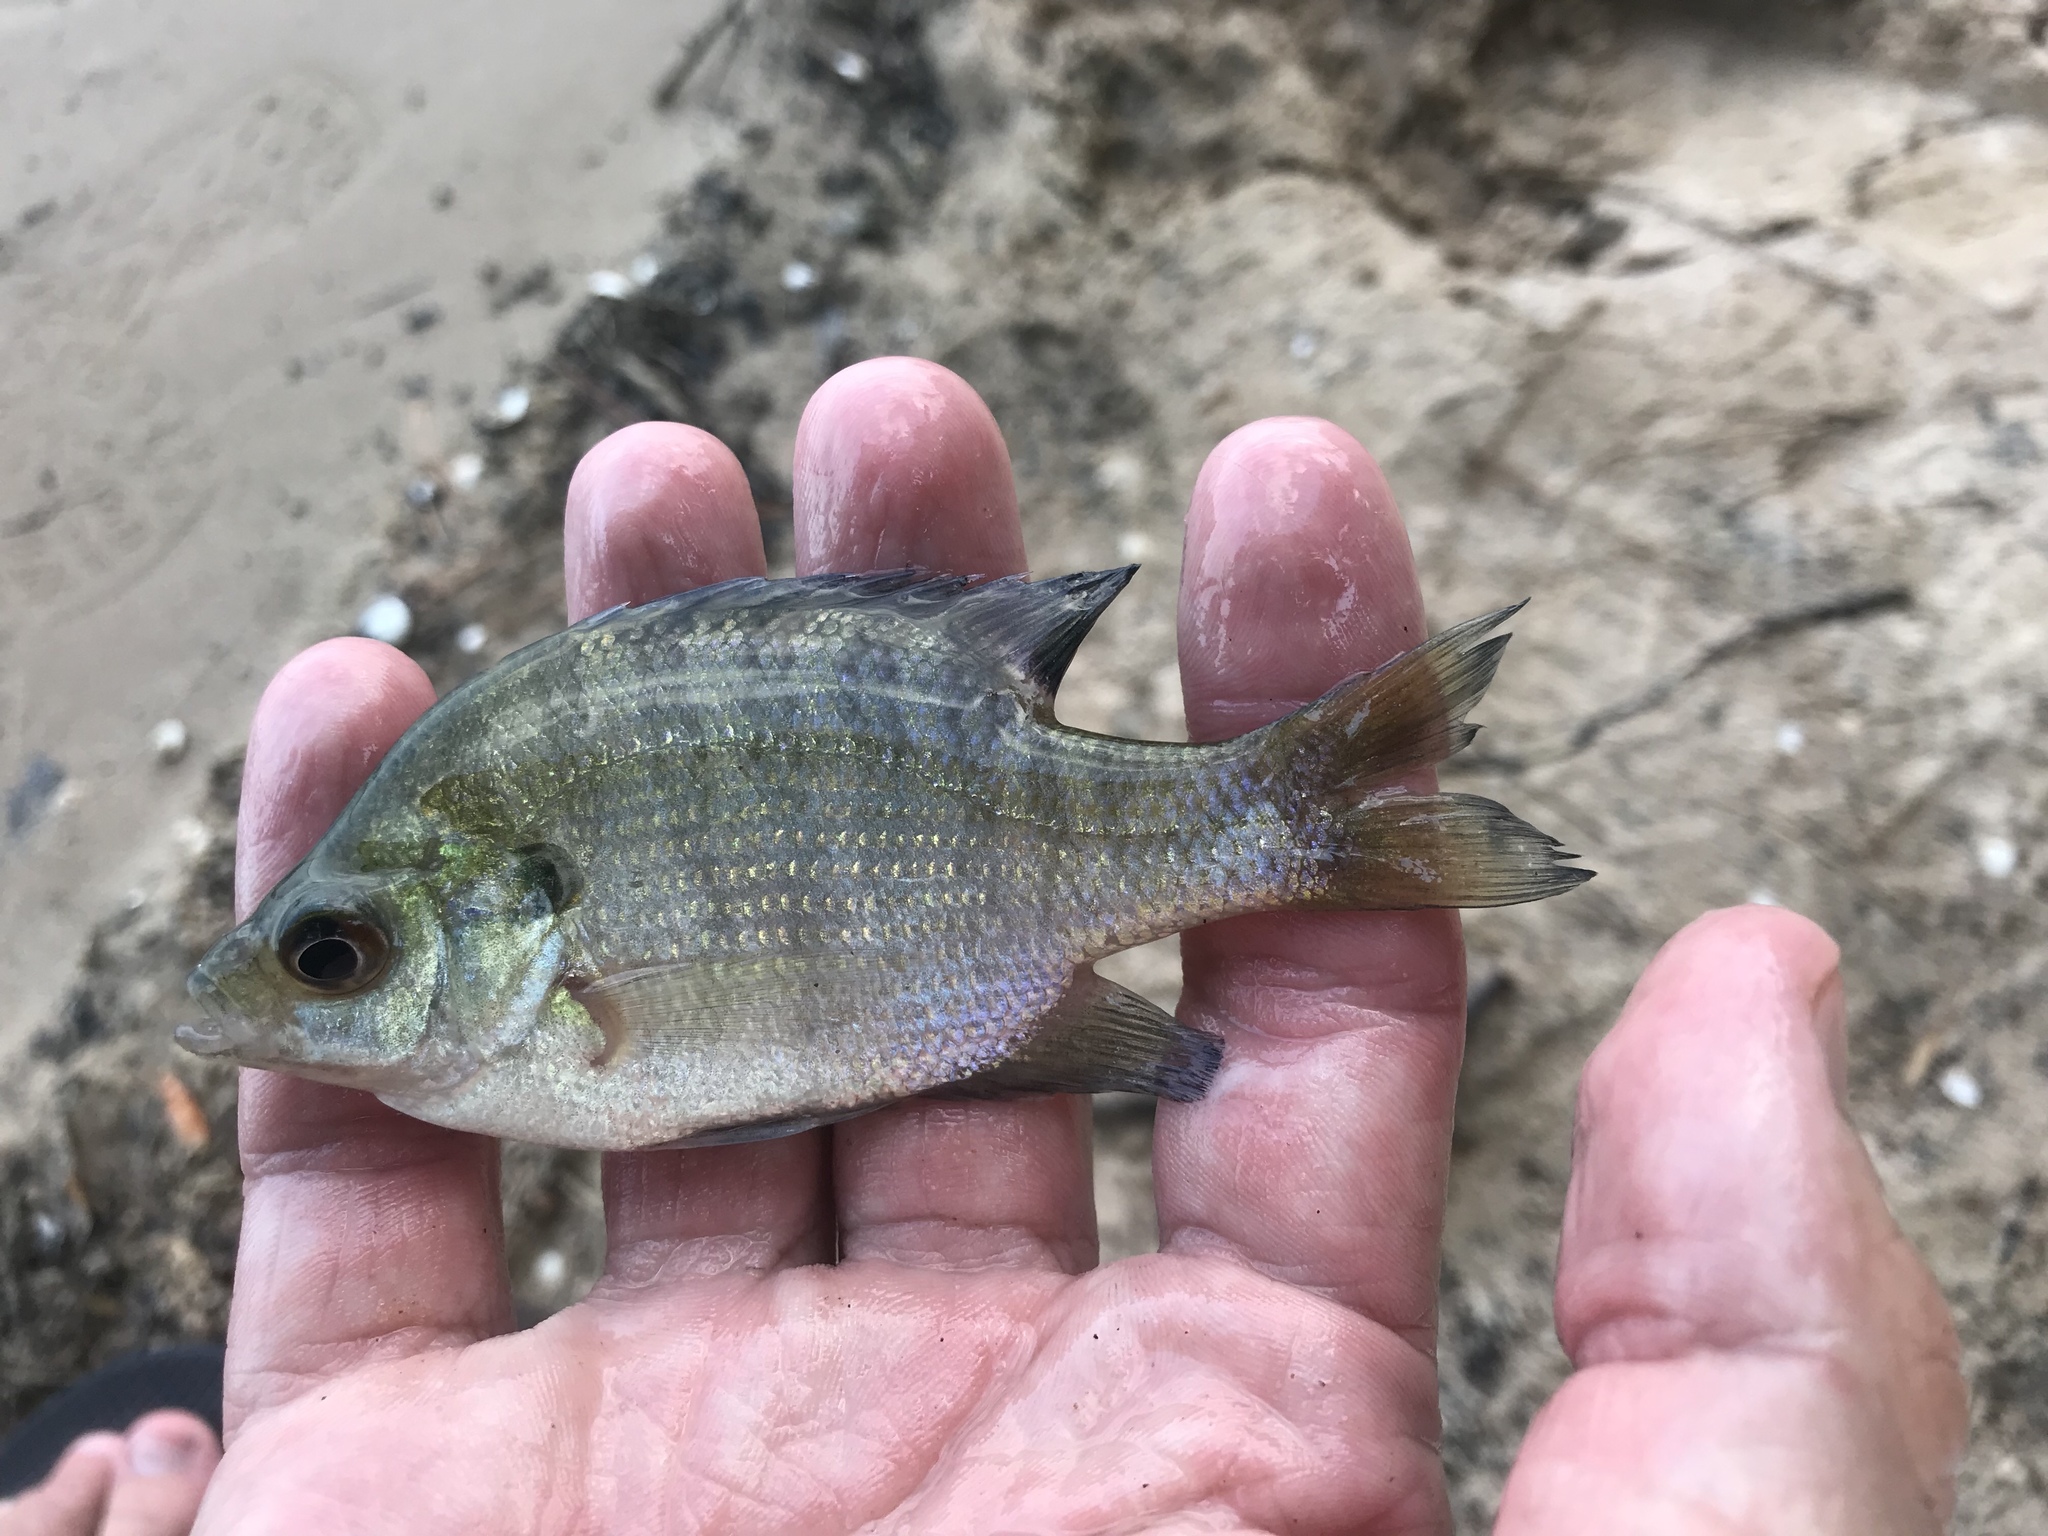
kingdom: Animalia
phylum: Chordata
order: Perciformes
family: Centrarchidae
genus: Lepomis
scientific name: Lepomis macrochirus
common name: Bluegill
